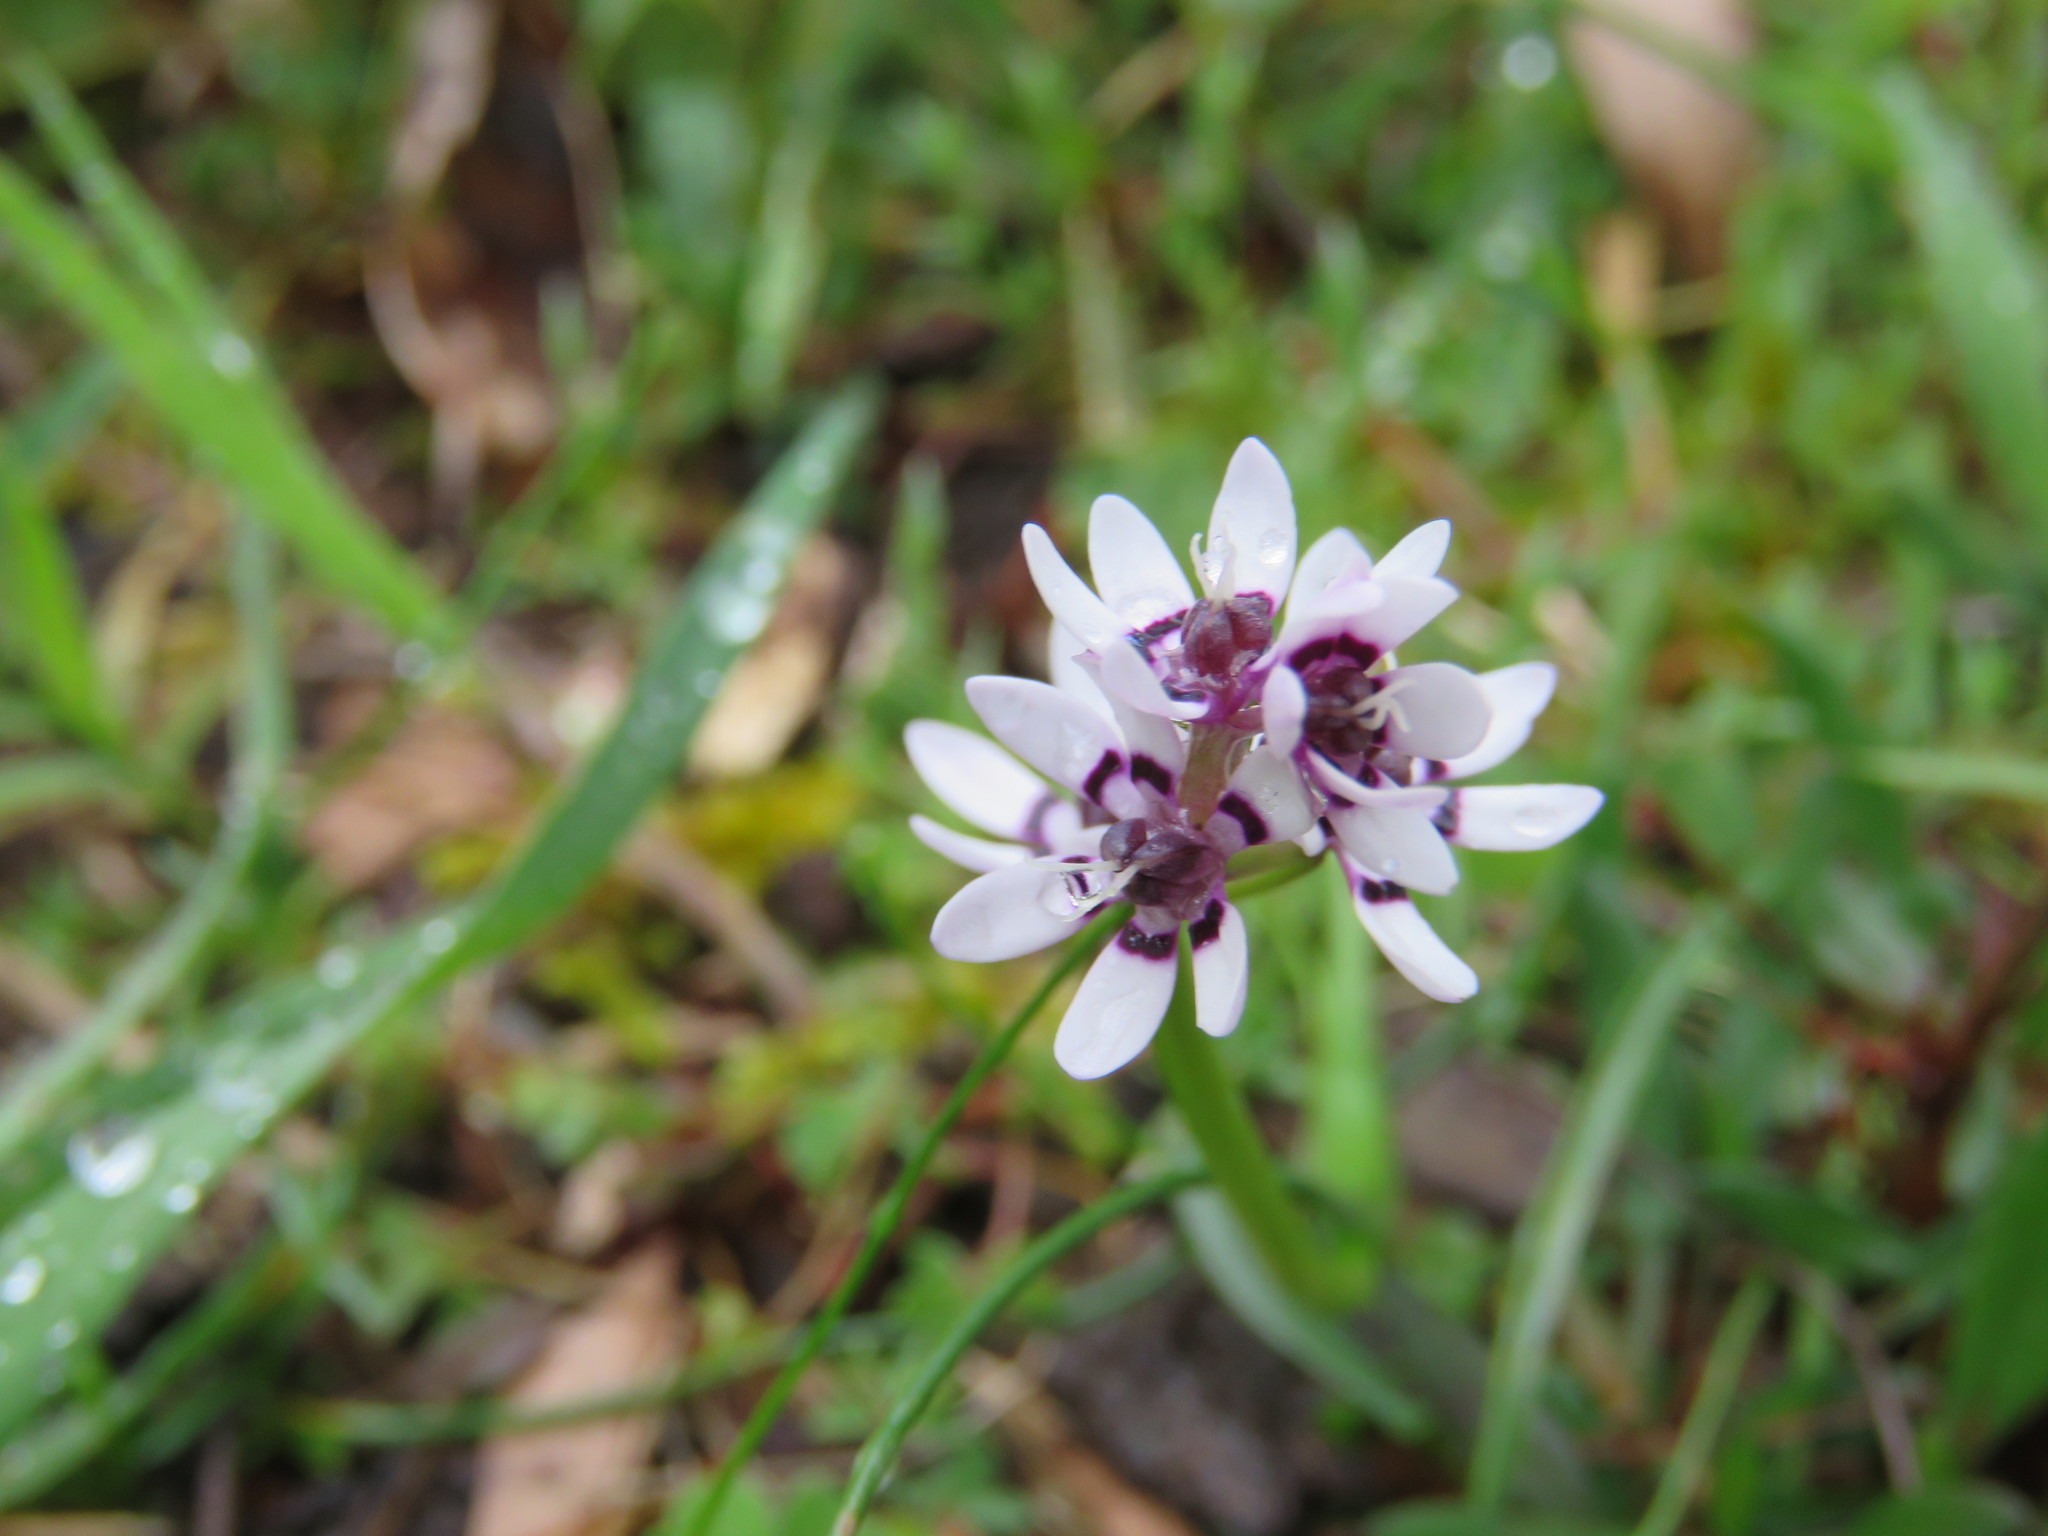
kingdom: Plantae
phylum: Tracheophyta
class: Liliopsida
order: Liliales
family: Colchicaceae
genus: Wurmbea
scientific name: Wurmbea dioica
